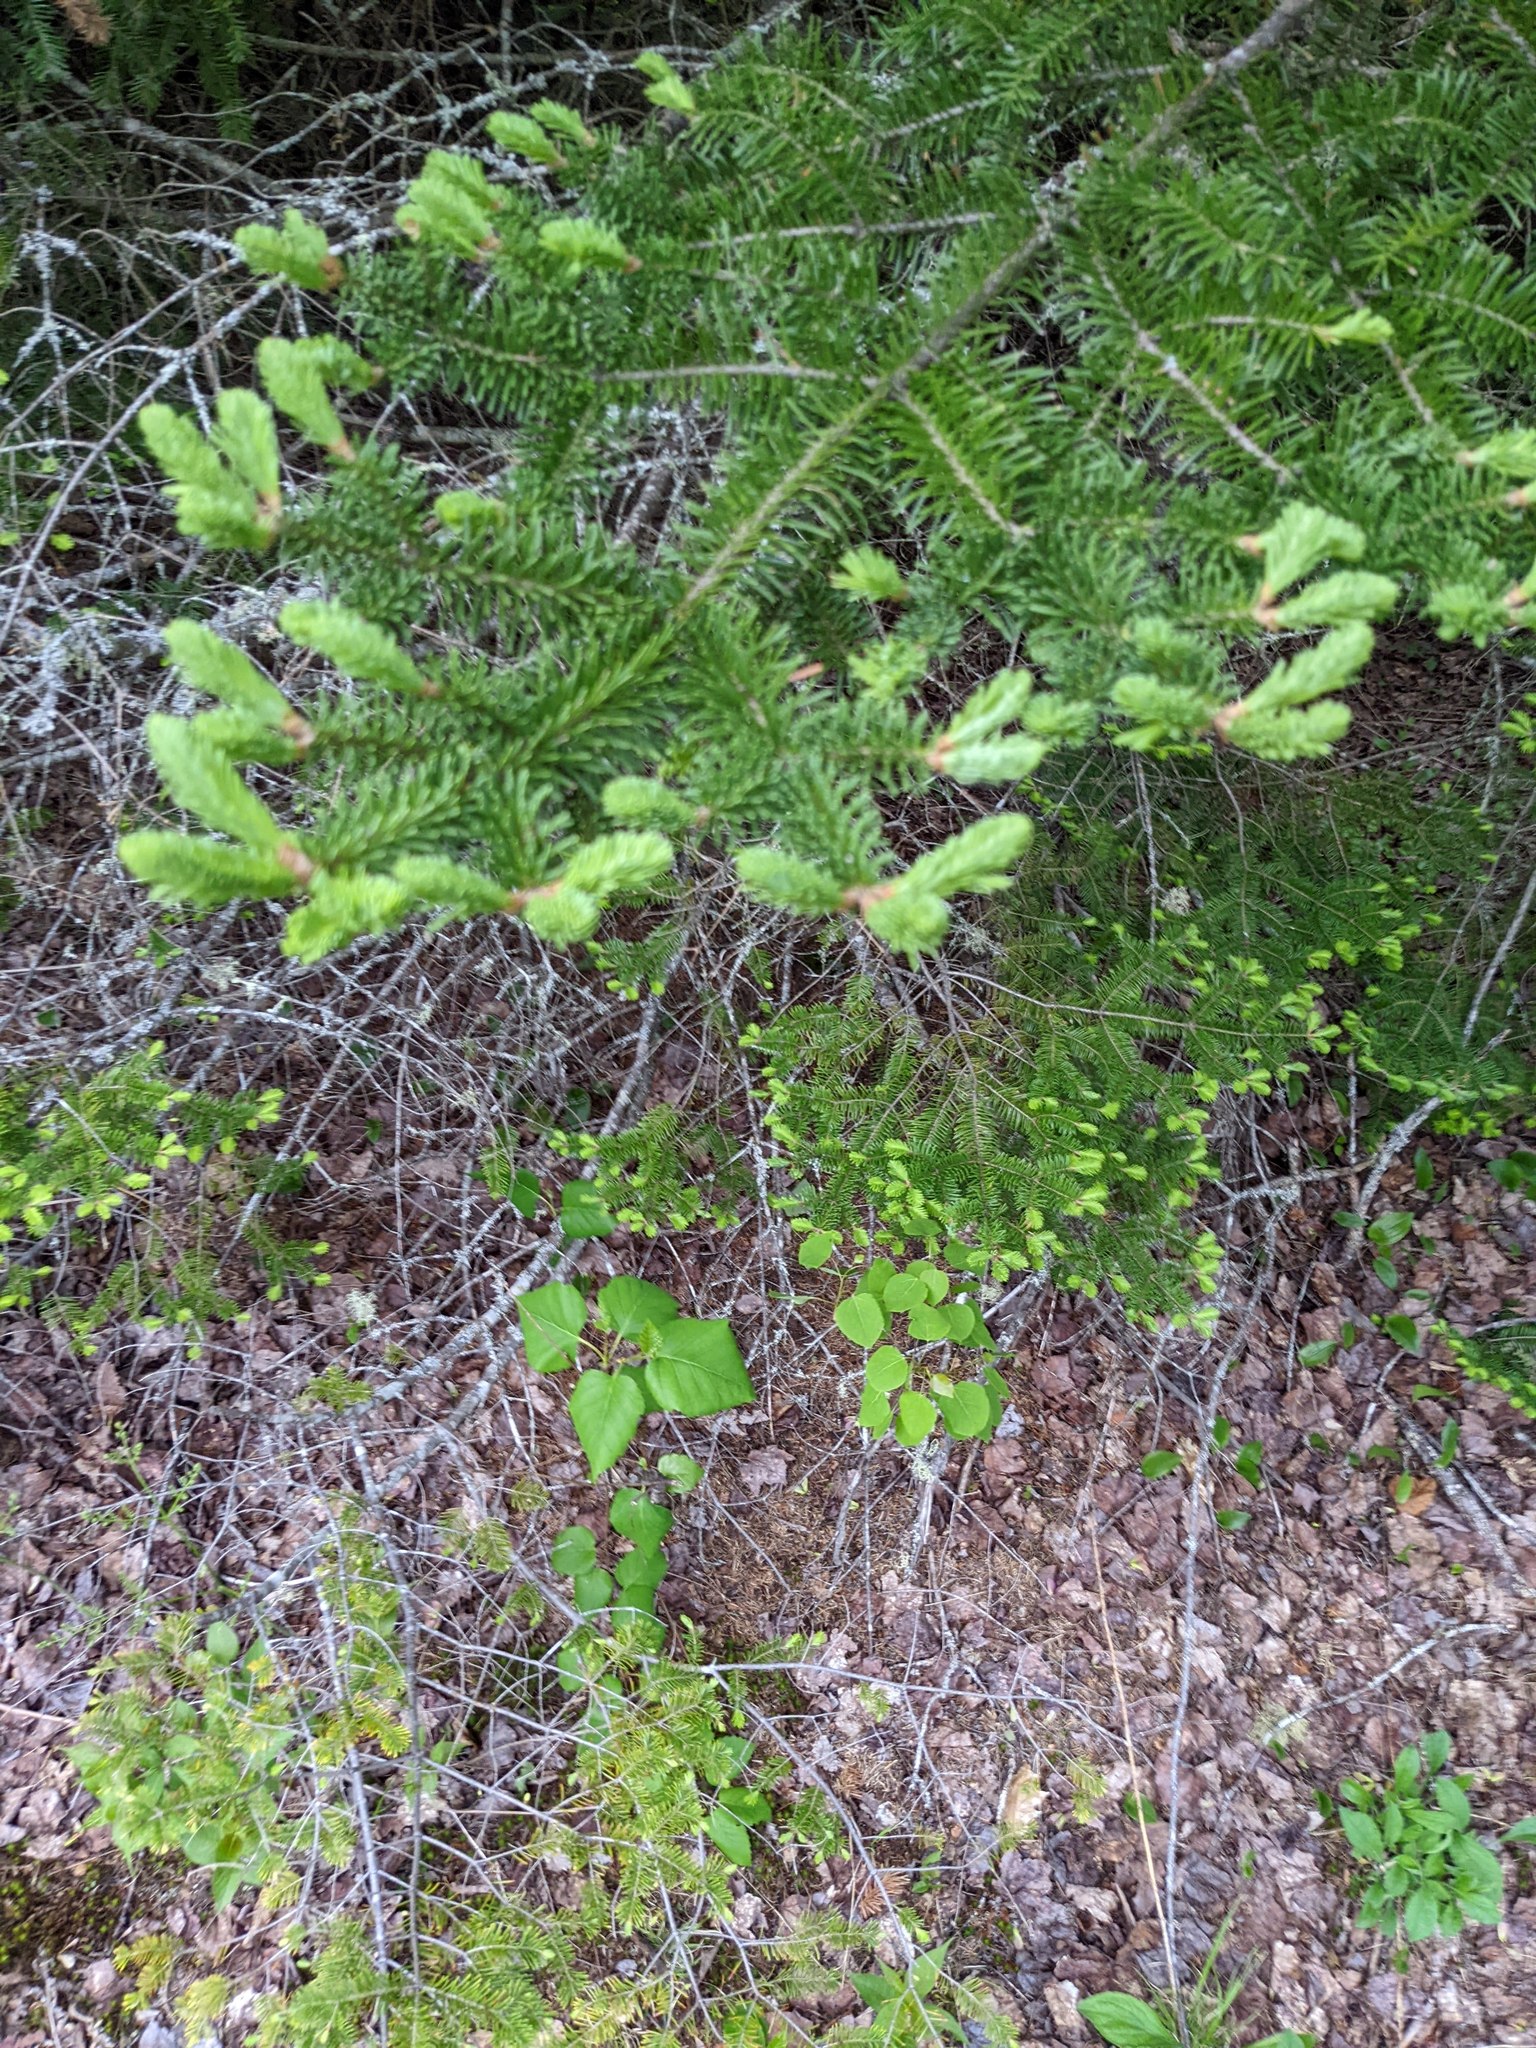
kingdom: Plantae
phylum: Tracheophyta
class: Pinopsida
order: Pinales
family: Pinaceae
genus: Abies
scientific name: Abies balsamea
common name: Balsam fir
